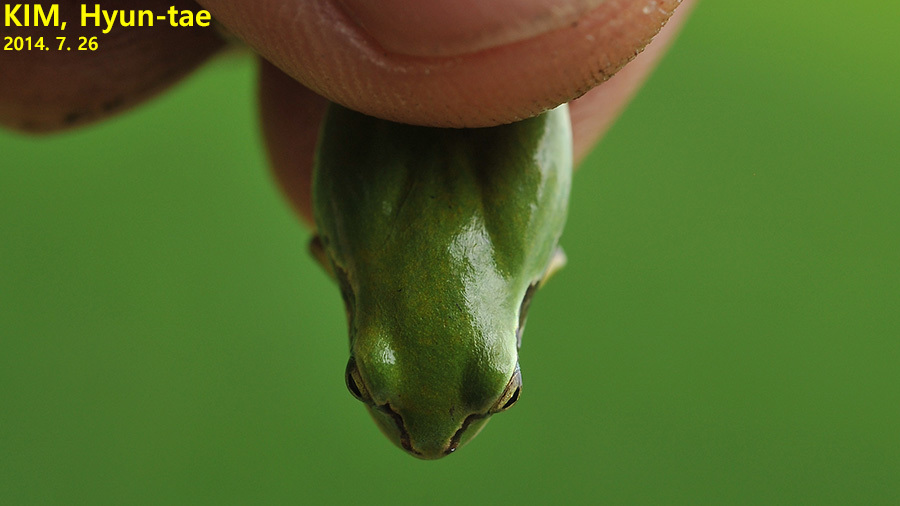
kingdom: Animalia
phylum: Chordata
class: Amphibia
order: Anura
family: Hylidae
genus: Dryophytes
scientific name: Dryophytes japonicus
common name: Japanese treefrog
